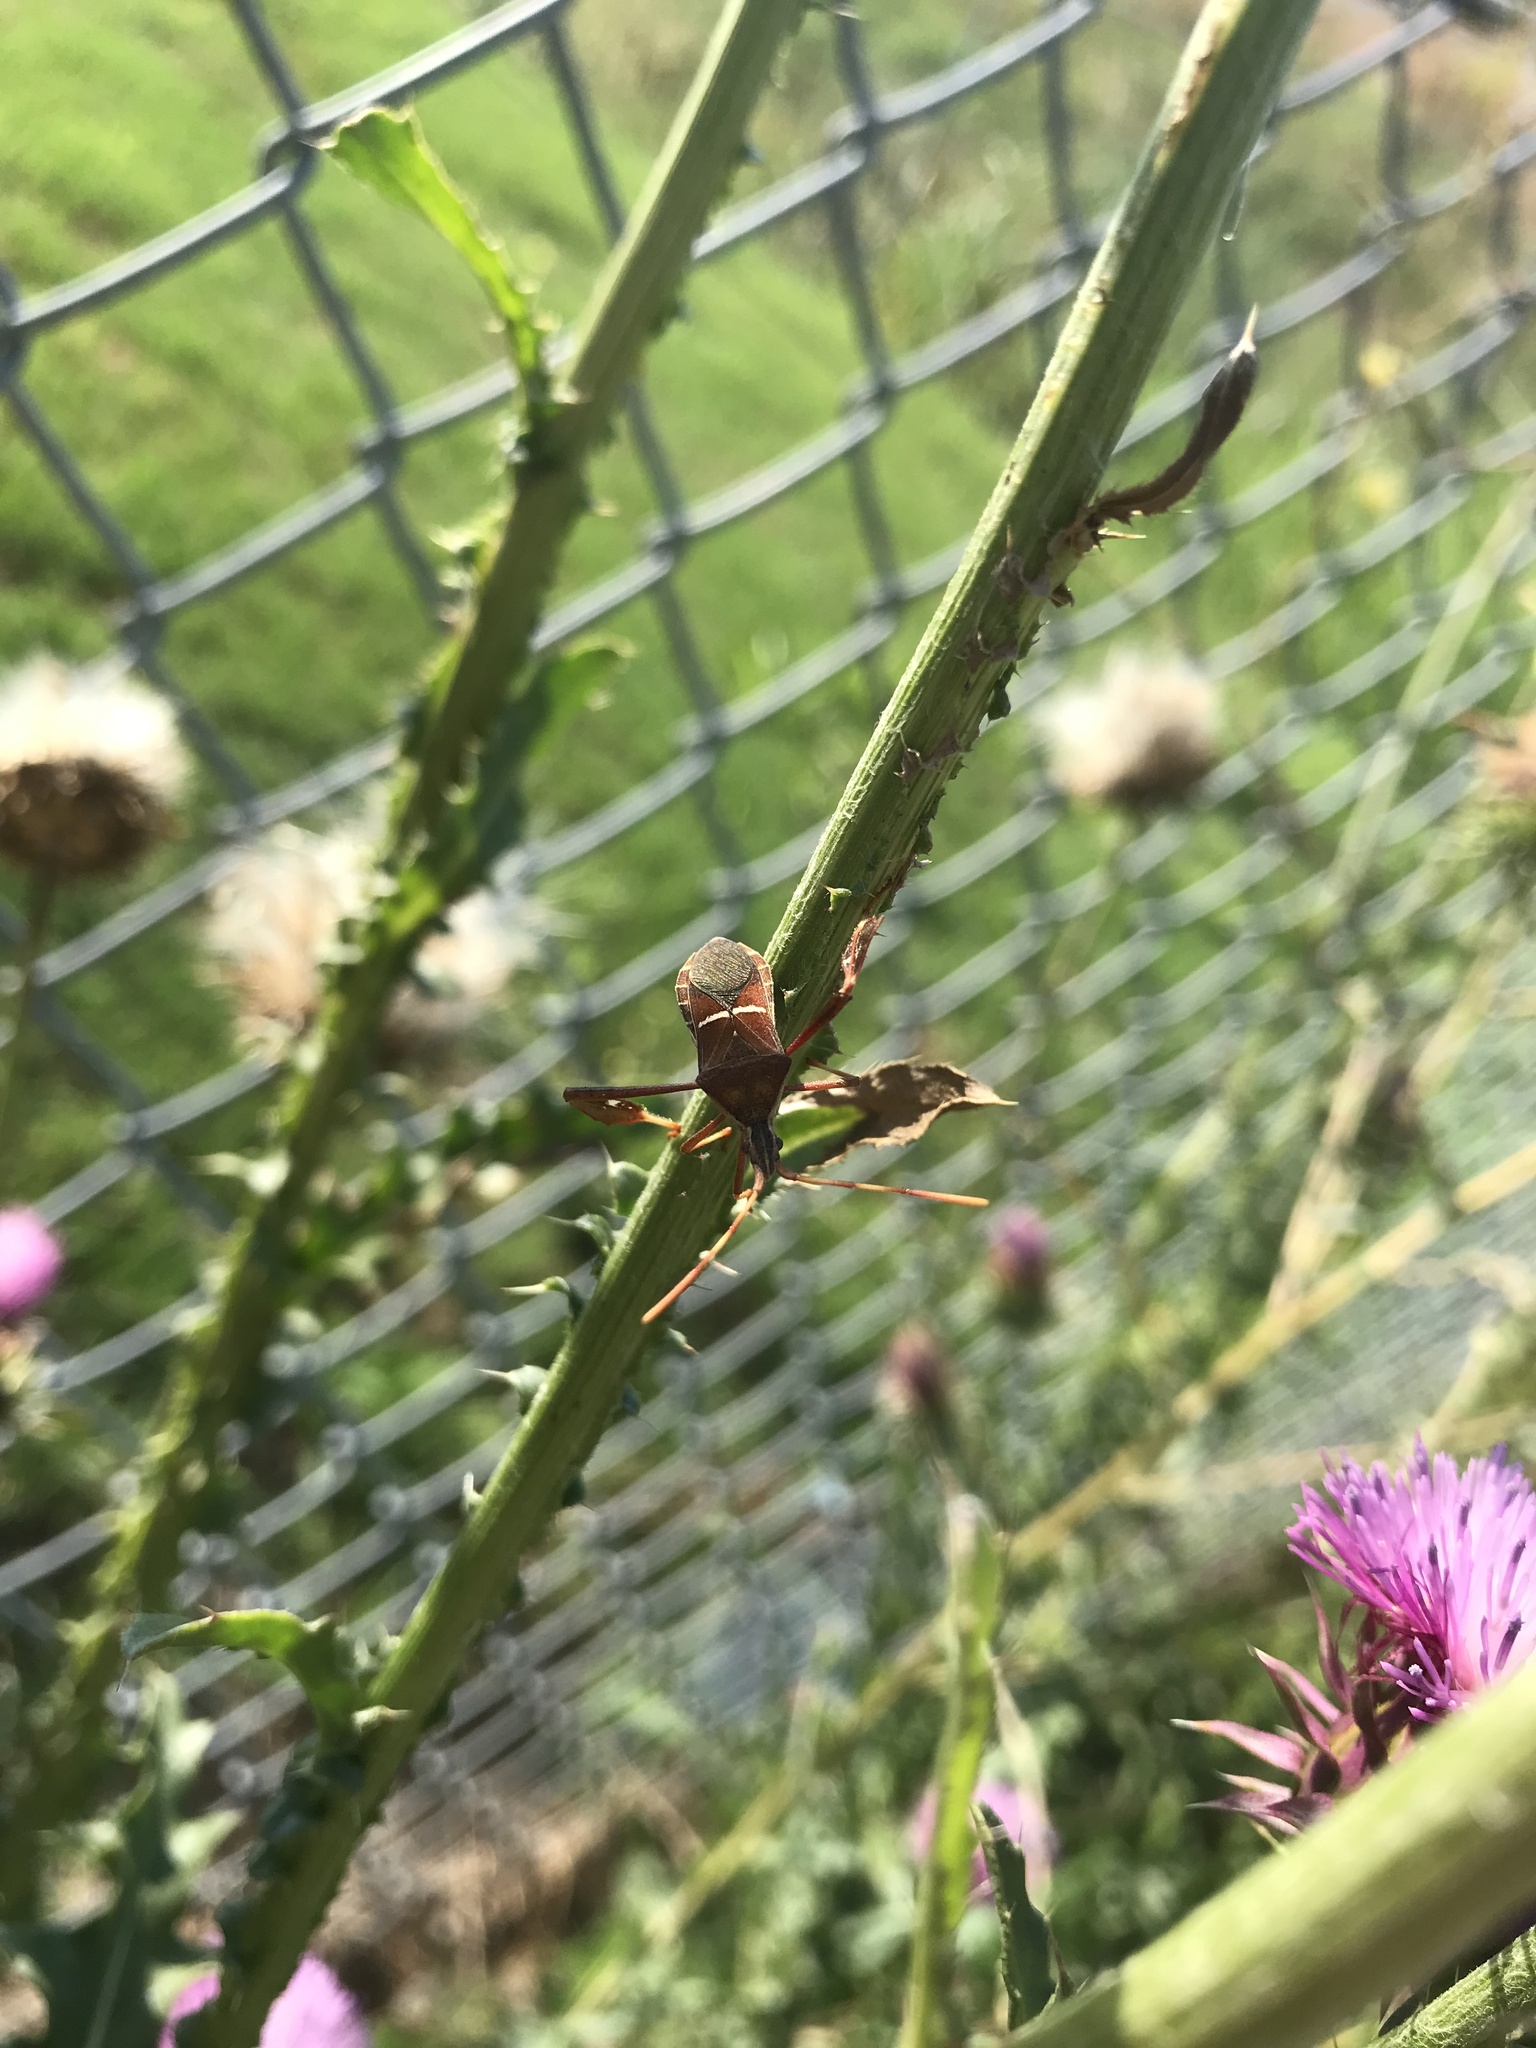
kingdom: Animalia
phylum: Arthropoda
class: Insecta
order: Hemiptera
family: Coreidae
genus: Leptoglossus
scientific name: Leptoglossus phyllopus
